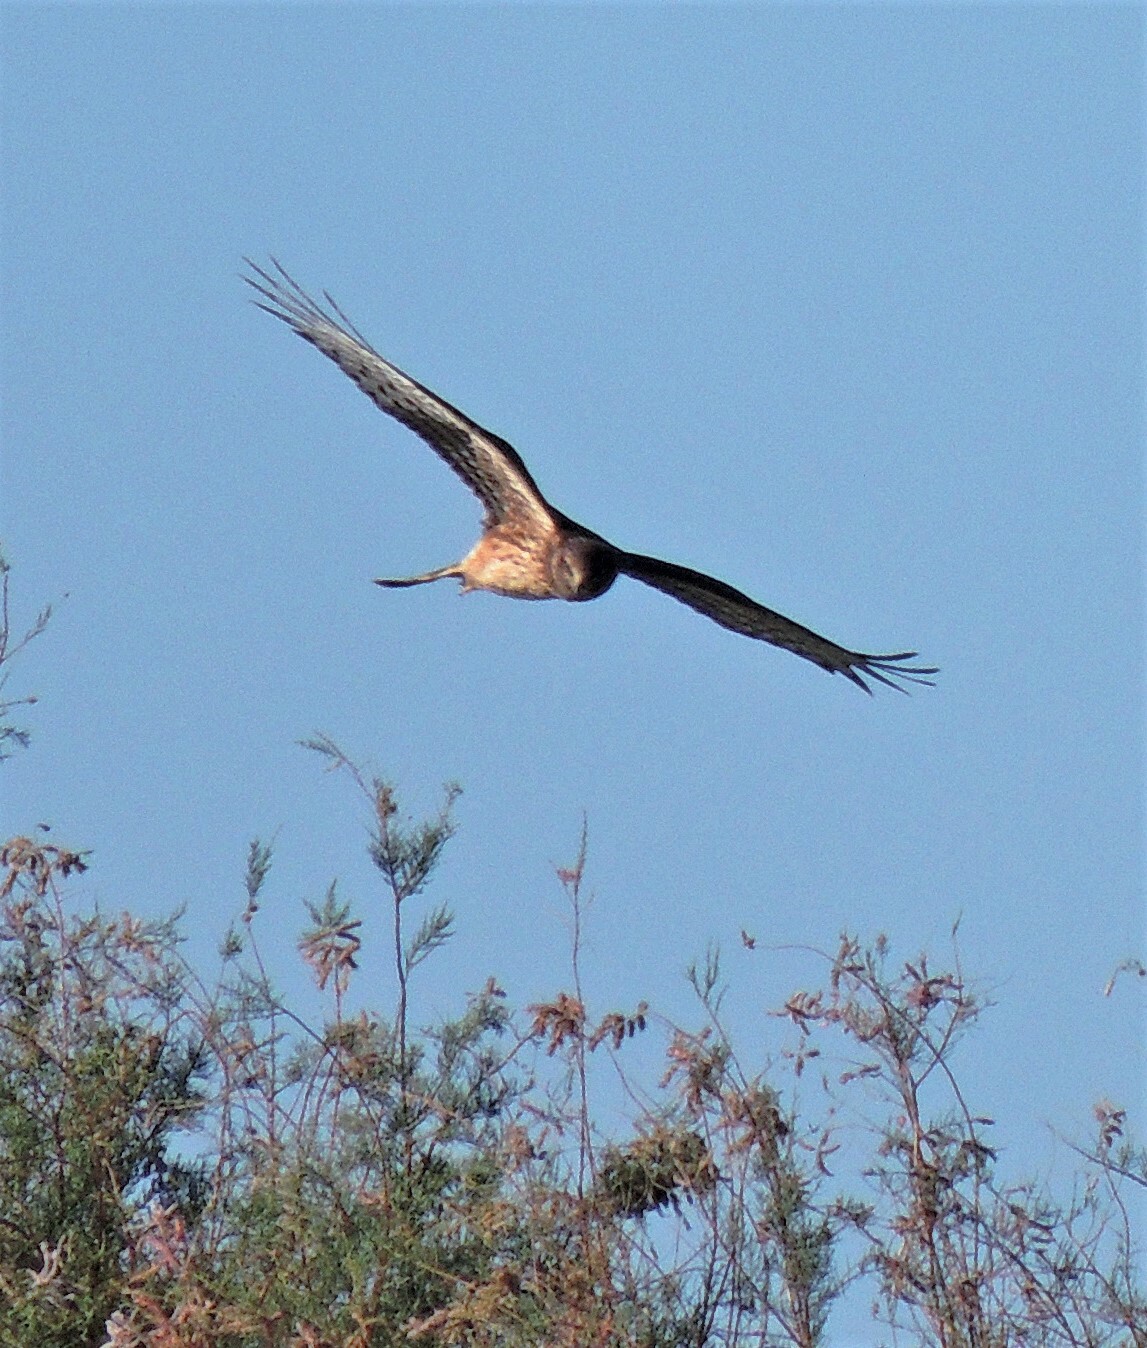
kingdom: Animalia
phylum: Chordata
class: Aves
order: Accipitriformes
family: Accipitridae
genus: Circus
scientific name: Circus cinereus
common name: Cinereous harrier
